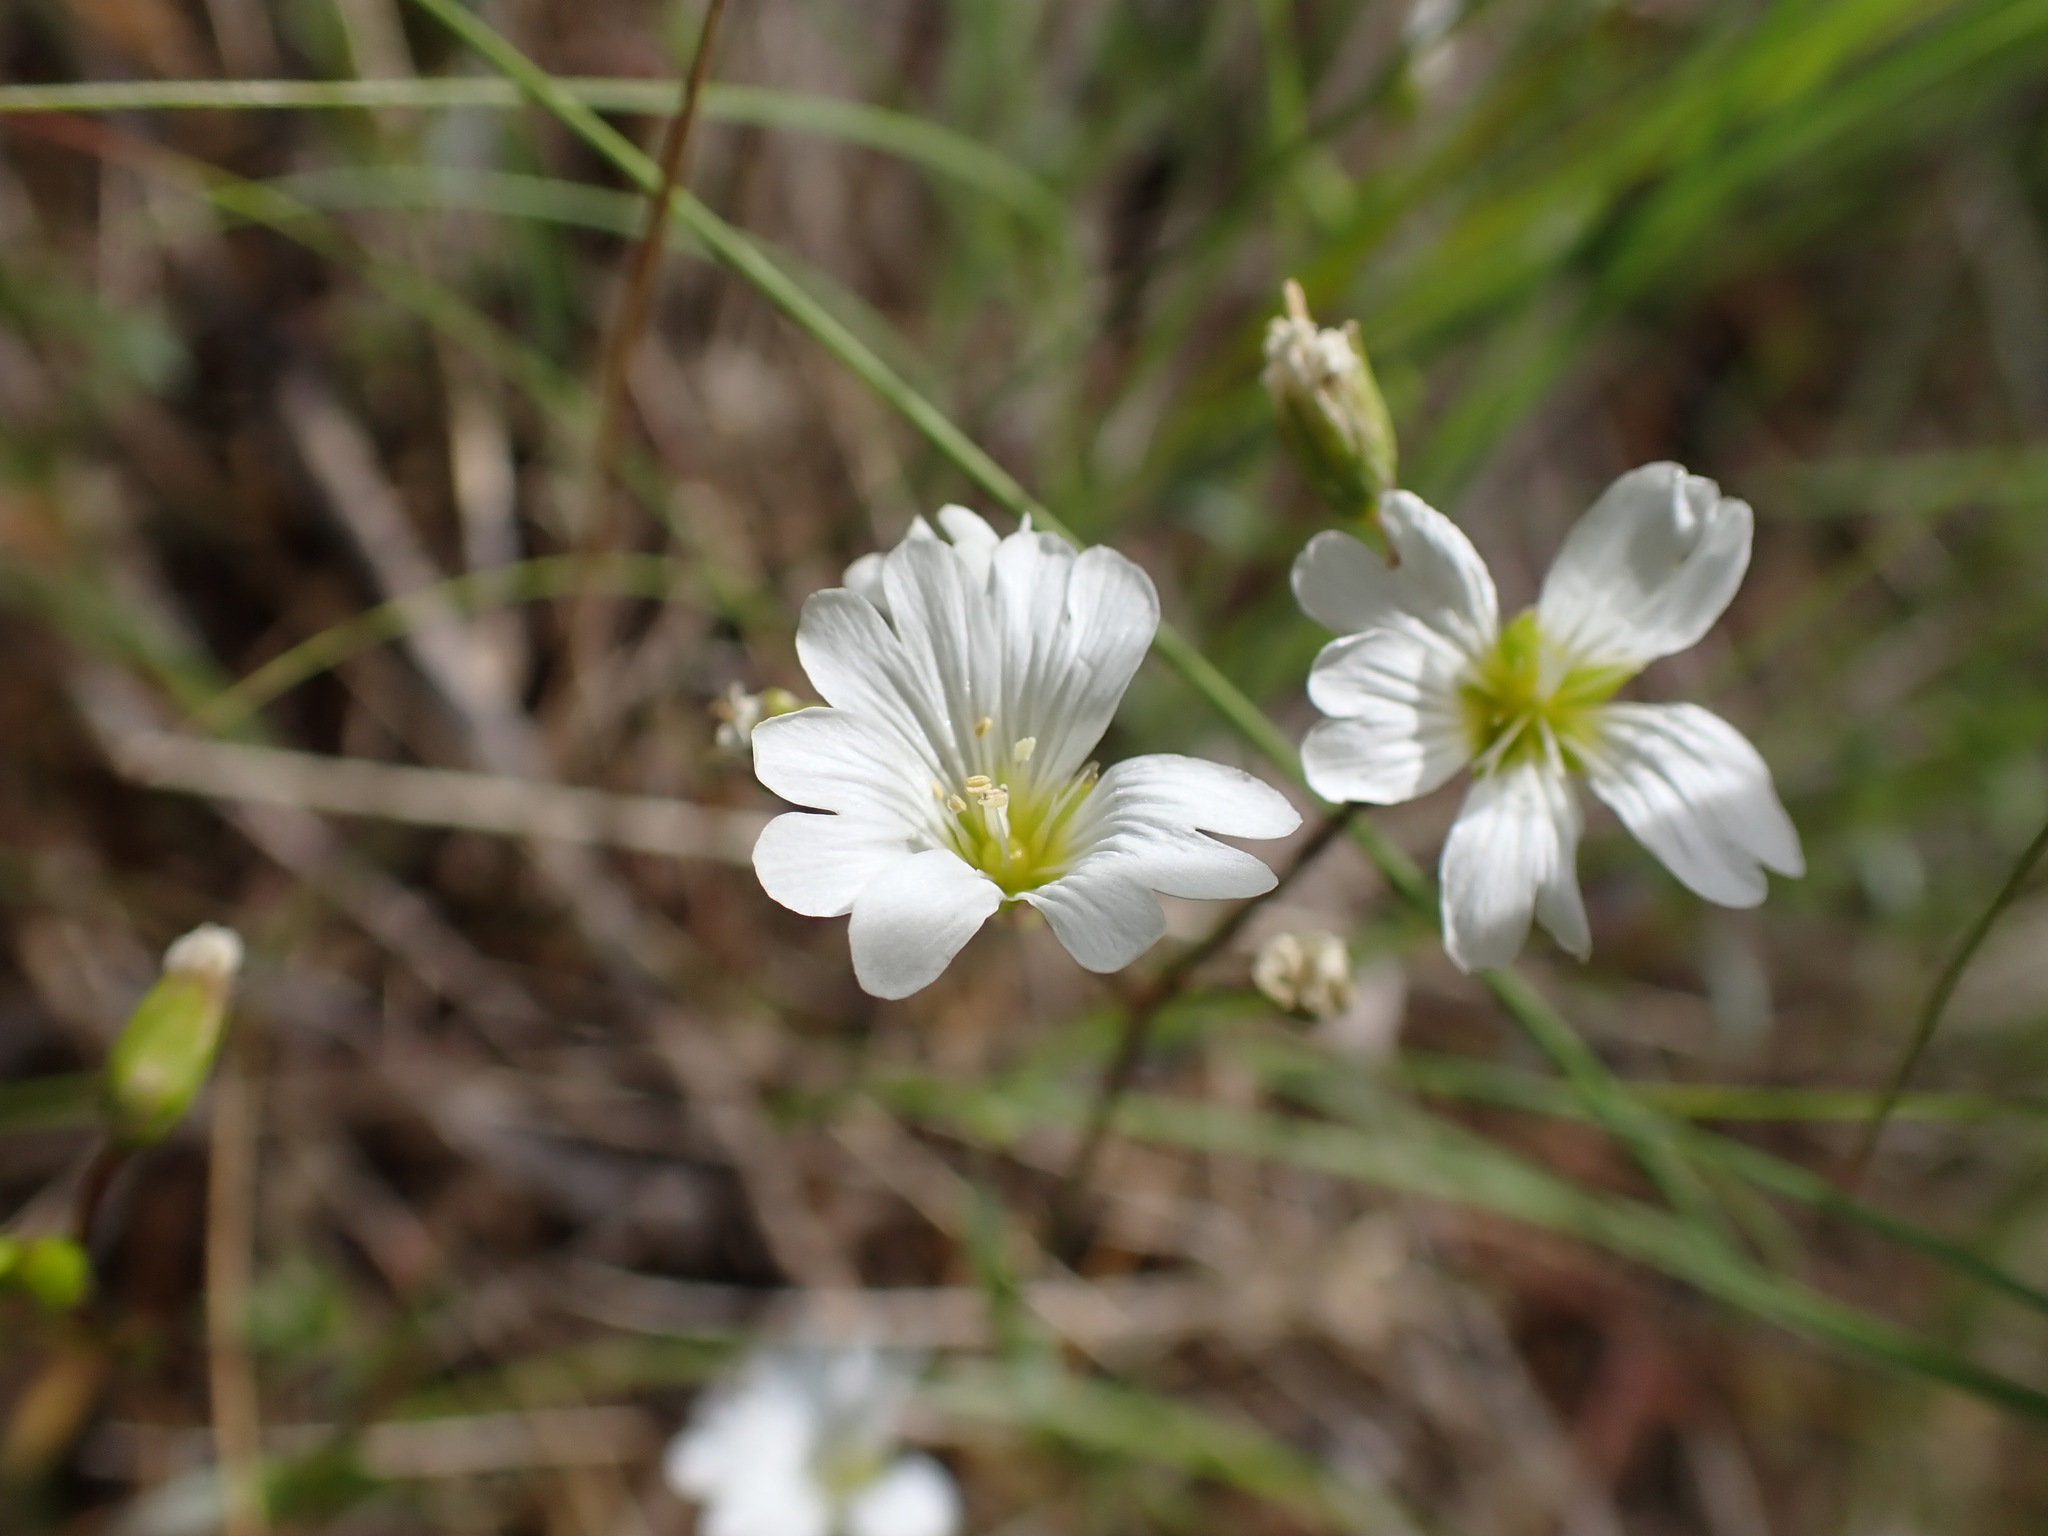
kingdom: Plantae
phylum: Tracheophyta
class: Magnoliopsida
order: Caryophyllales
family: Caryophyllaceae
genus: Cerastium
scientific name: Cerastium arvense
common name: Field mouse-ear
